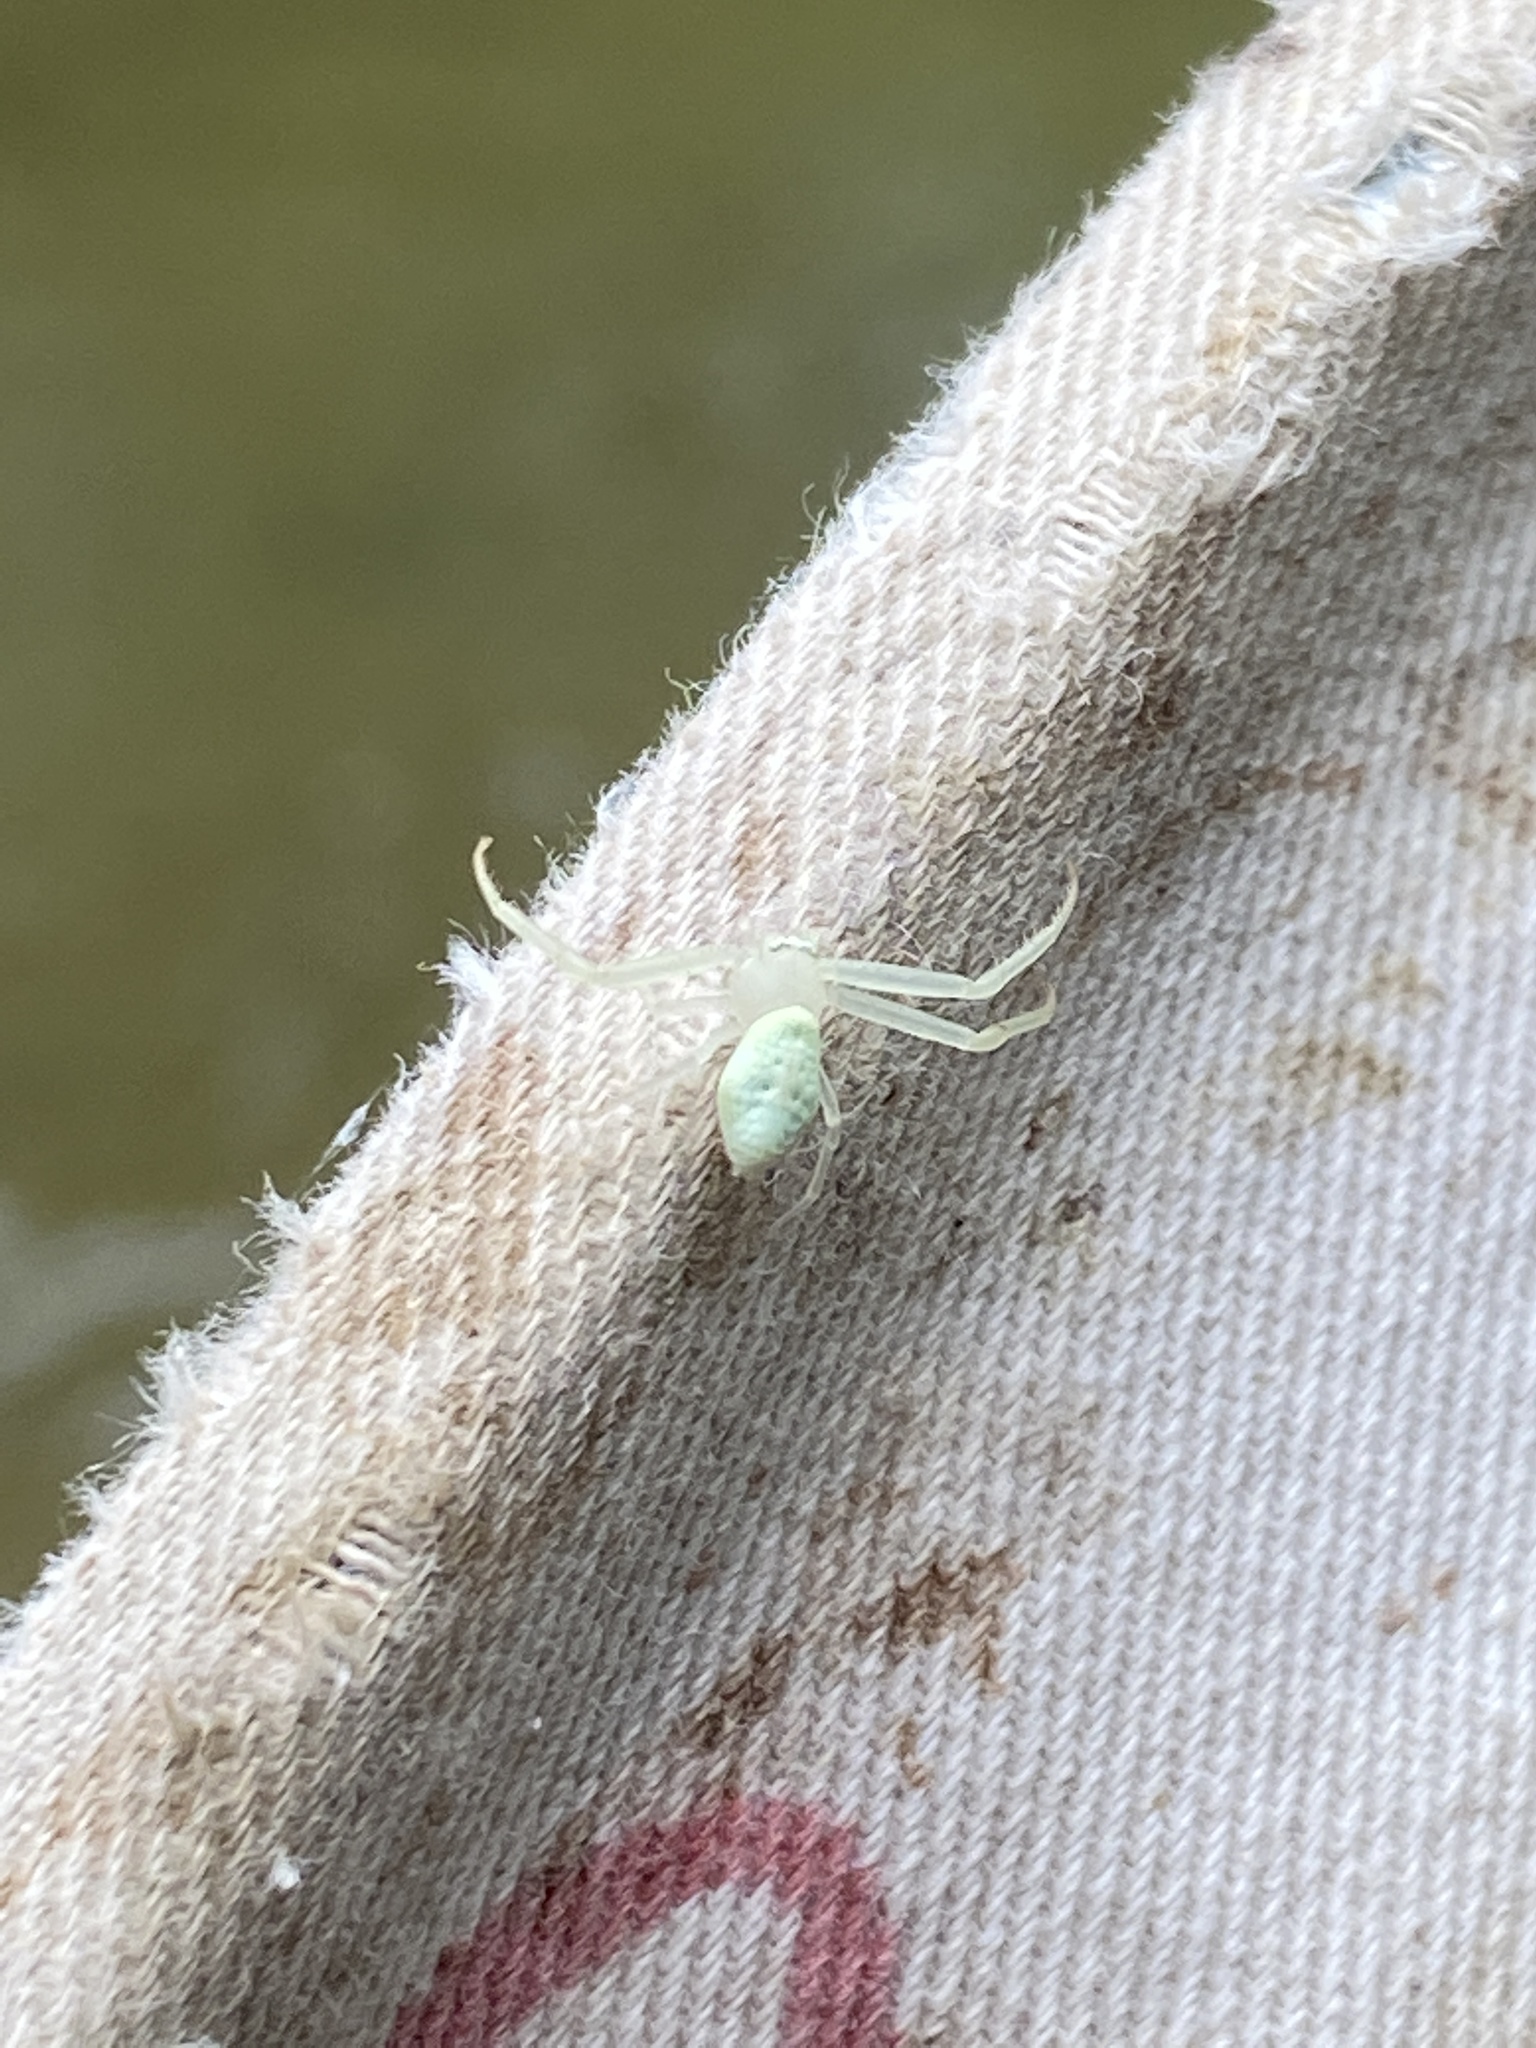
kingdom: Animalia
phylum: Arthropoda
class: Arachnida
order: Araneae
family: Thomisidae
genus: Misumessus
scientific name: Misumessus oblongus
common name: American green crab spider
